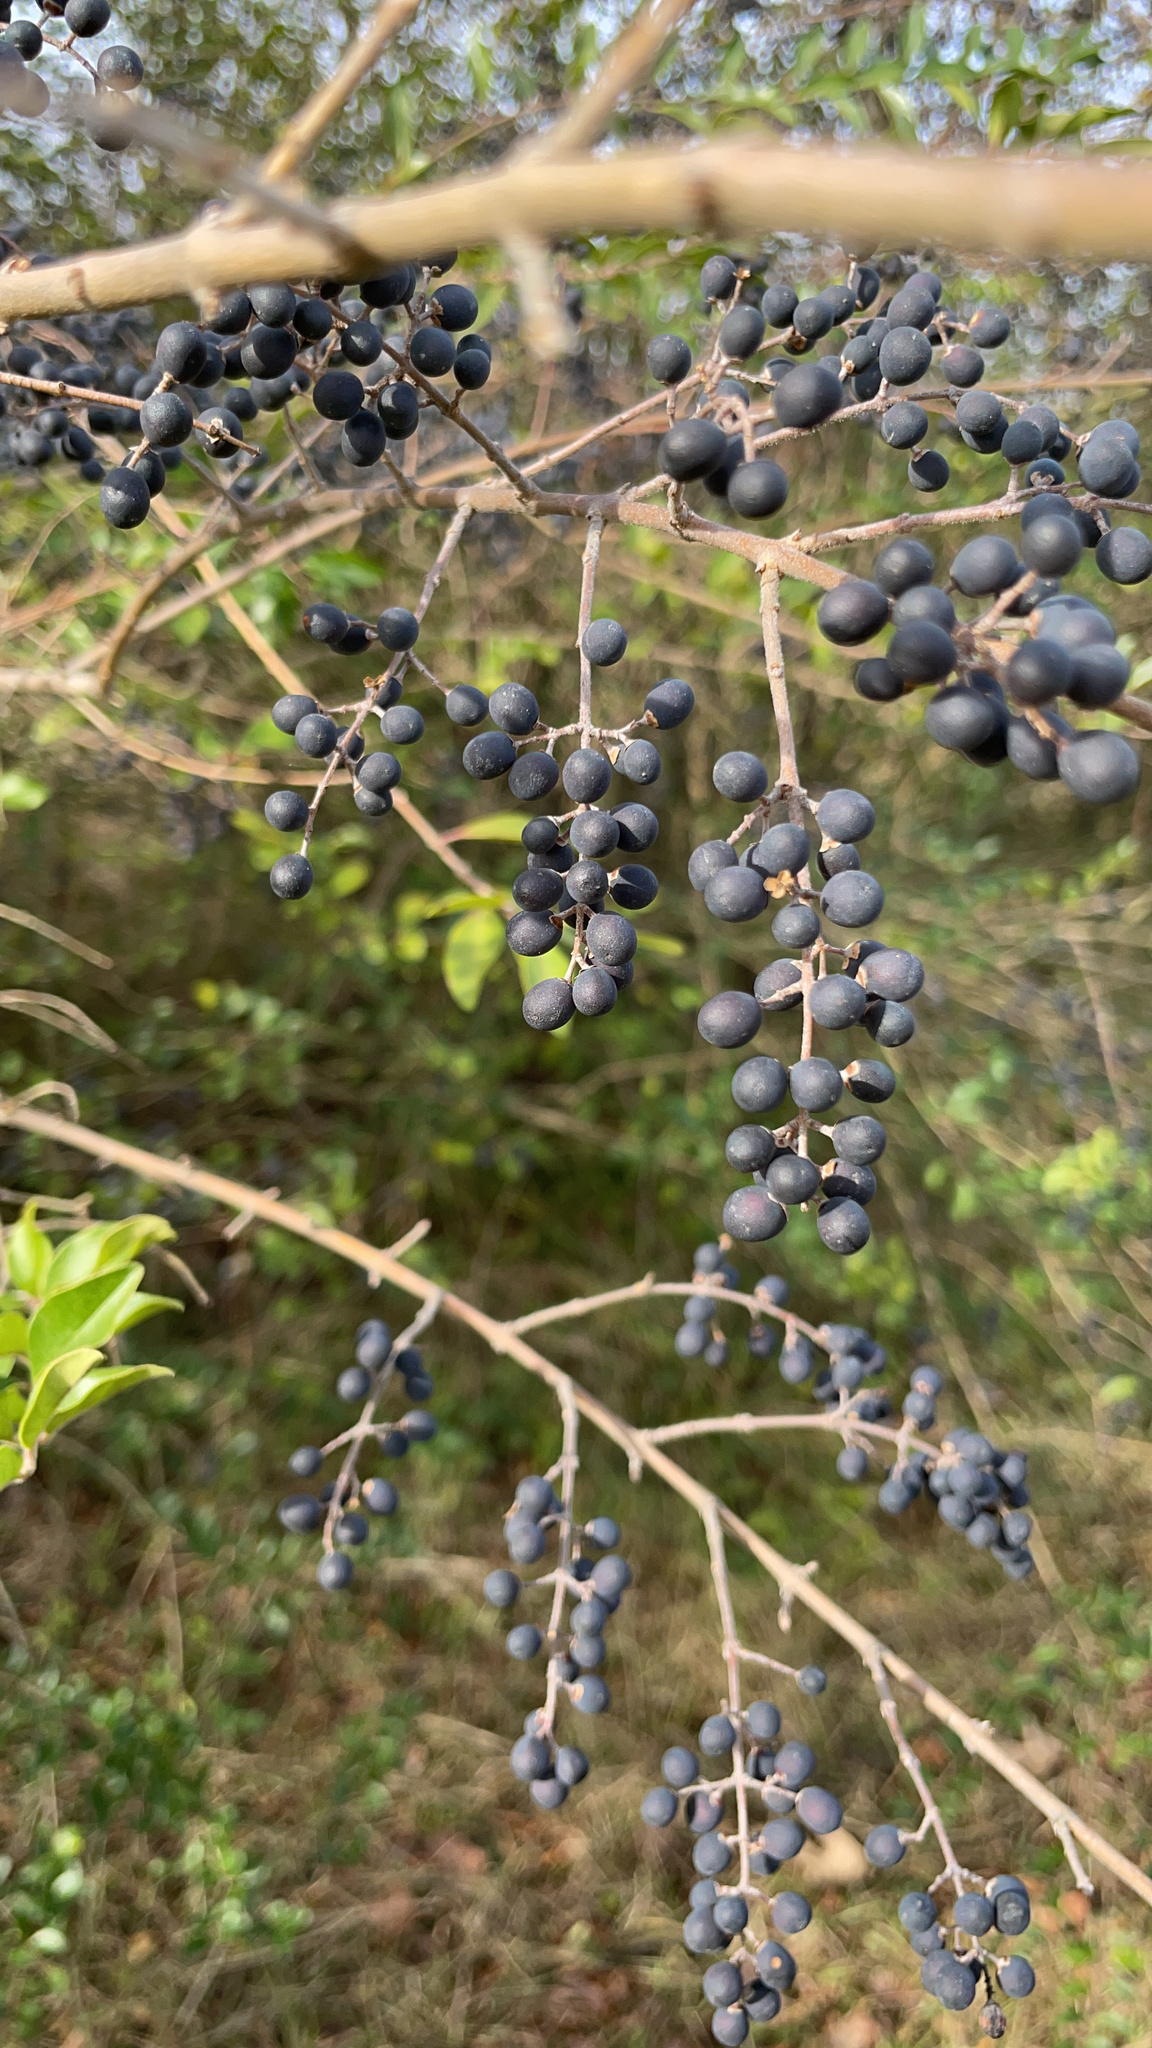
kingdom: Plantae
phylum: Tracheophyta
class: Magnoliopsida
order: Lamiales
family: Oleaceae
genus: Ligustrum
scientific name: Ligustrum sinense
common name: Chinese privet
